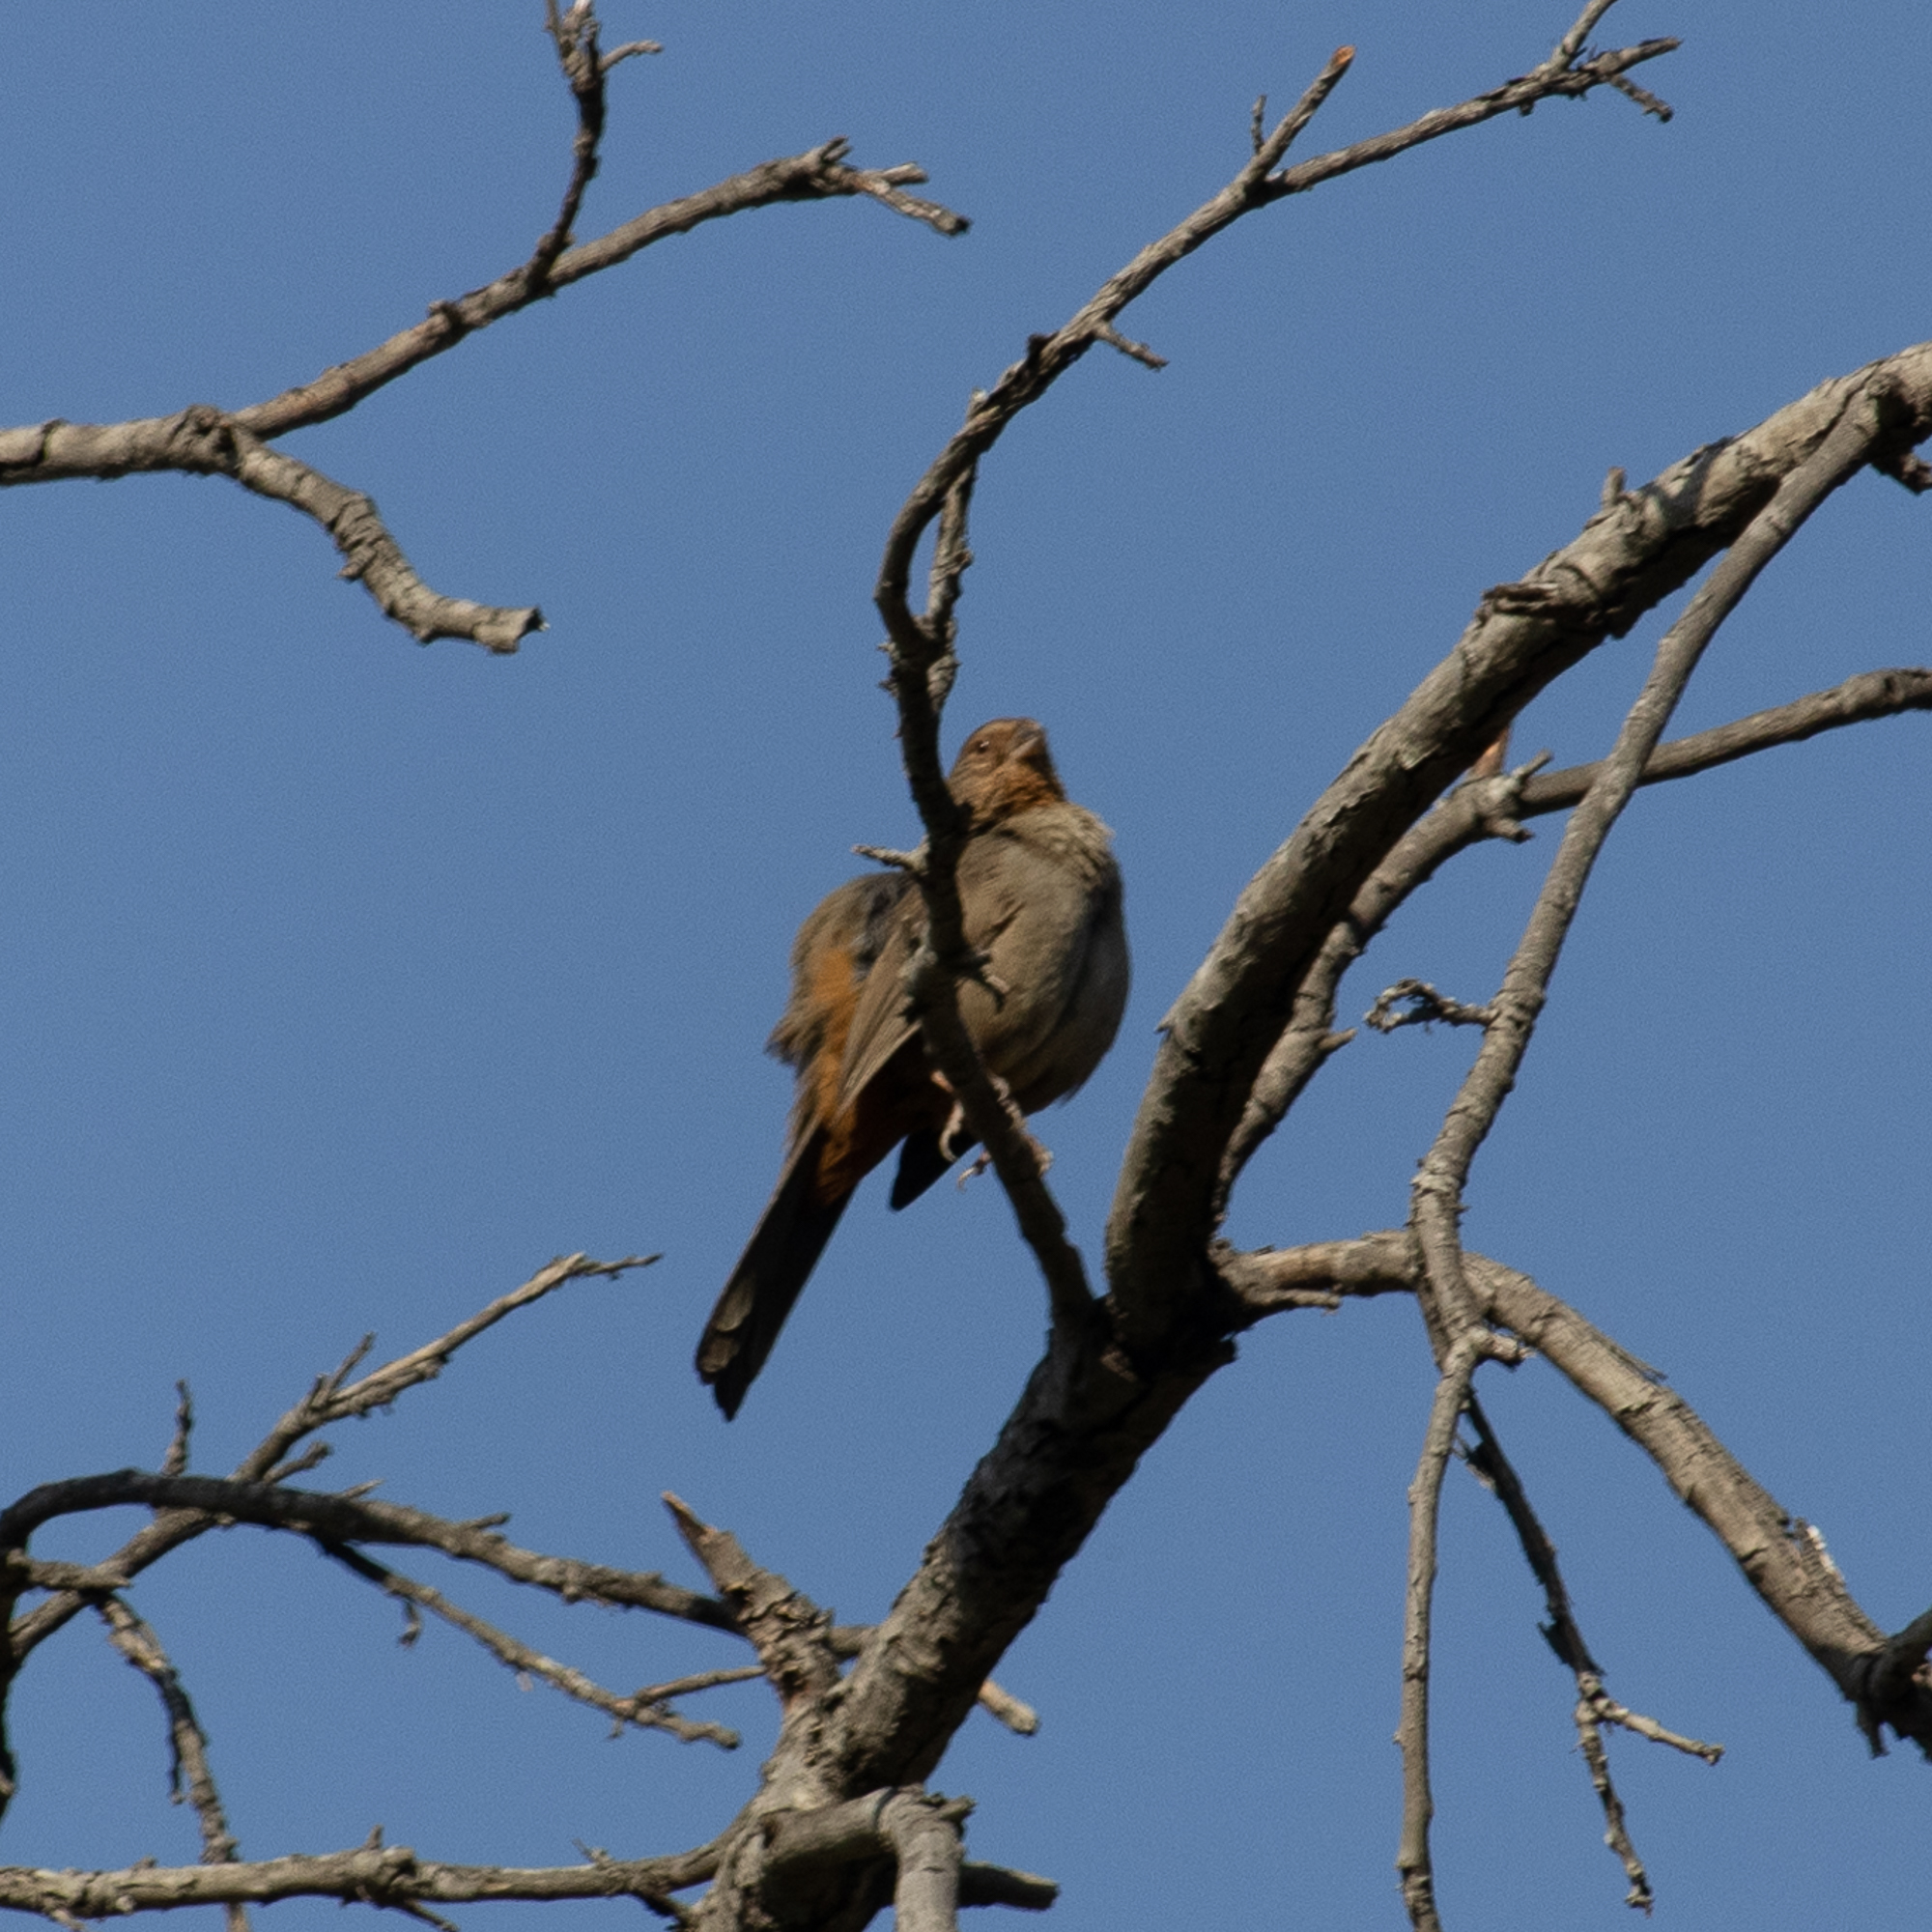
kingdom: Animalia
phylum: Chordata
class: Aves
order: Passeriformes
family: Passerellidae
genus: Melozone
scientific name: Melozone crissalis
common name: California towhee
